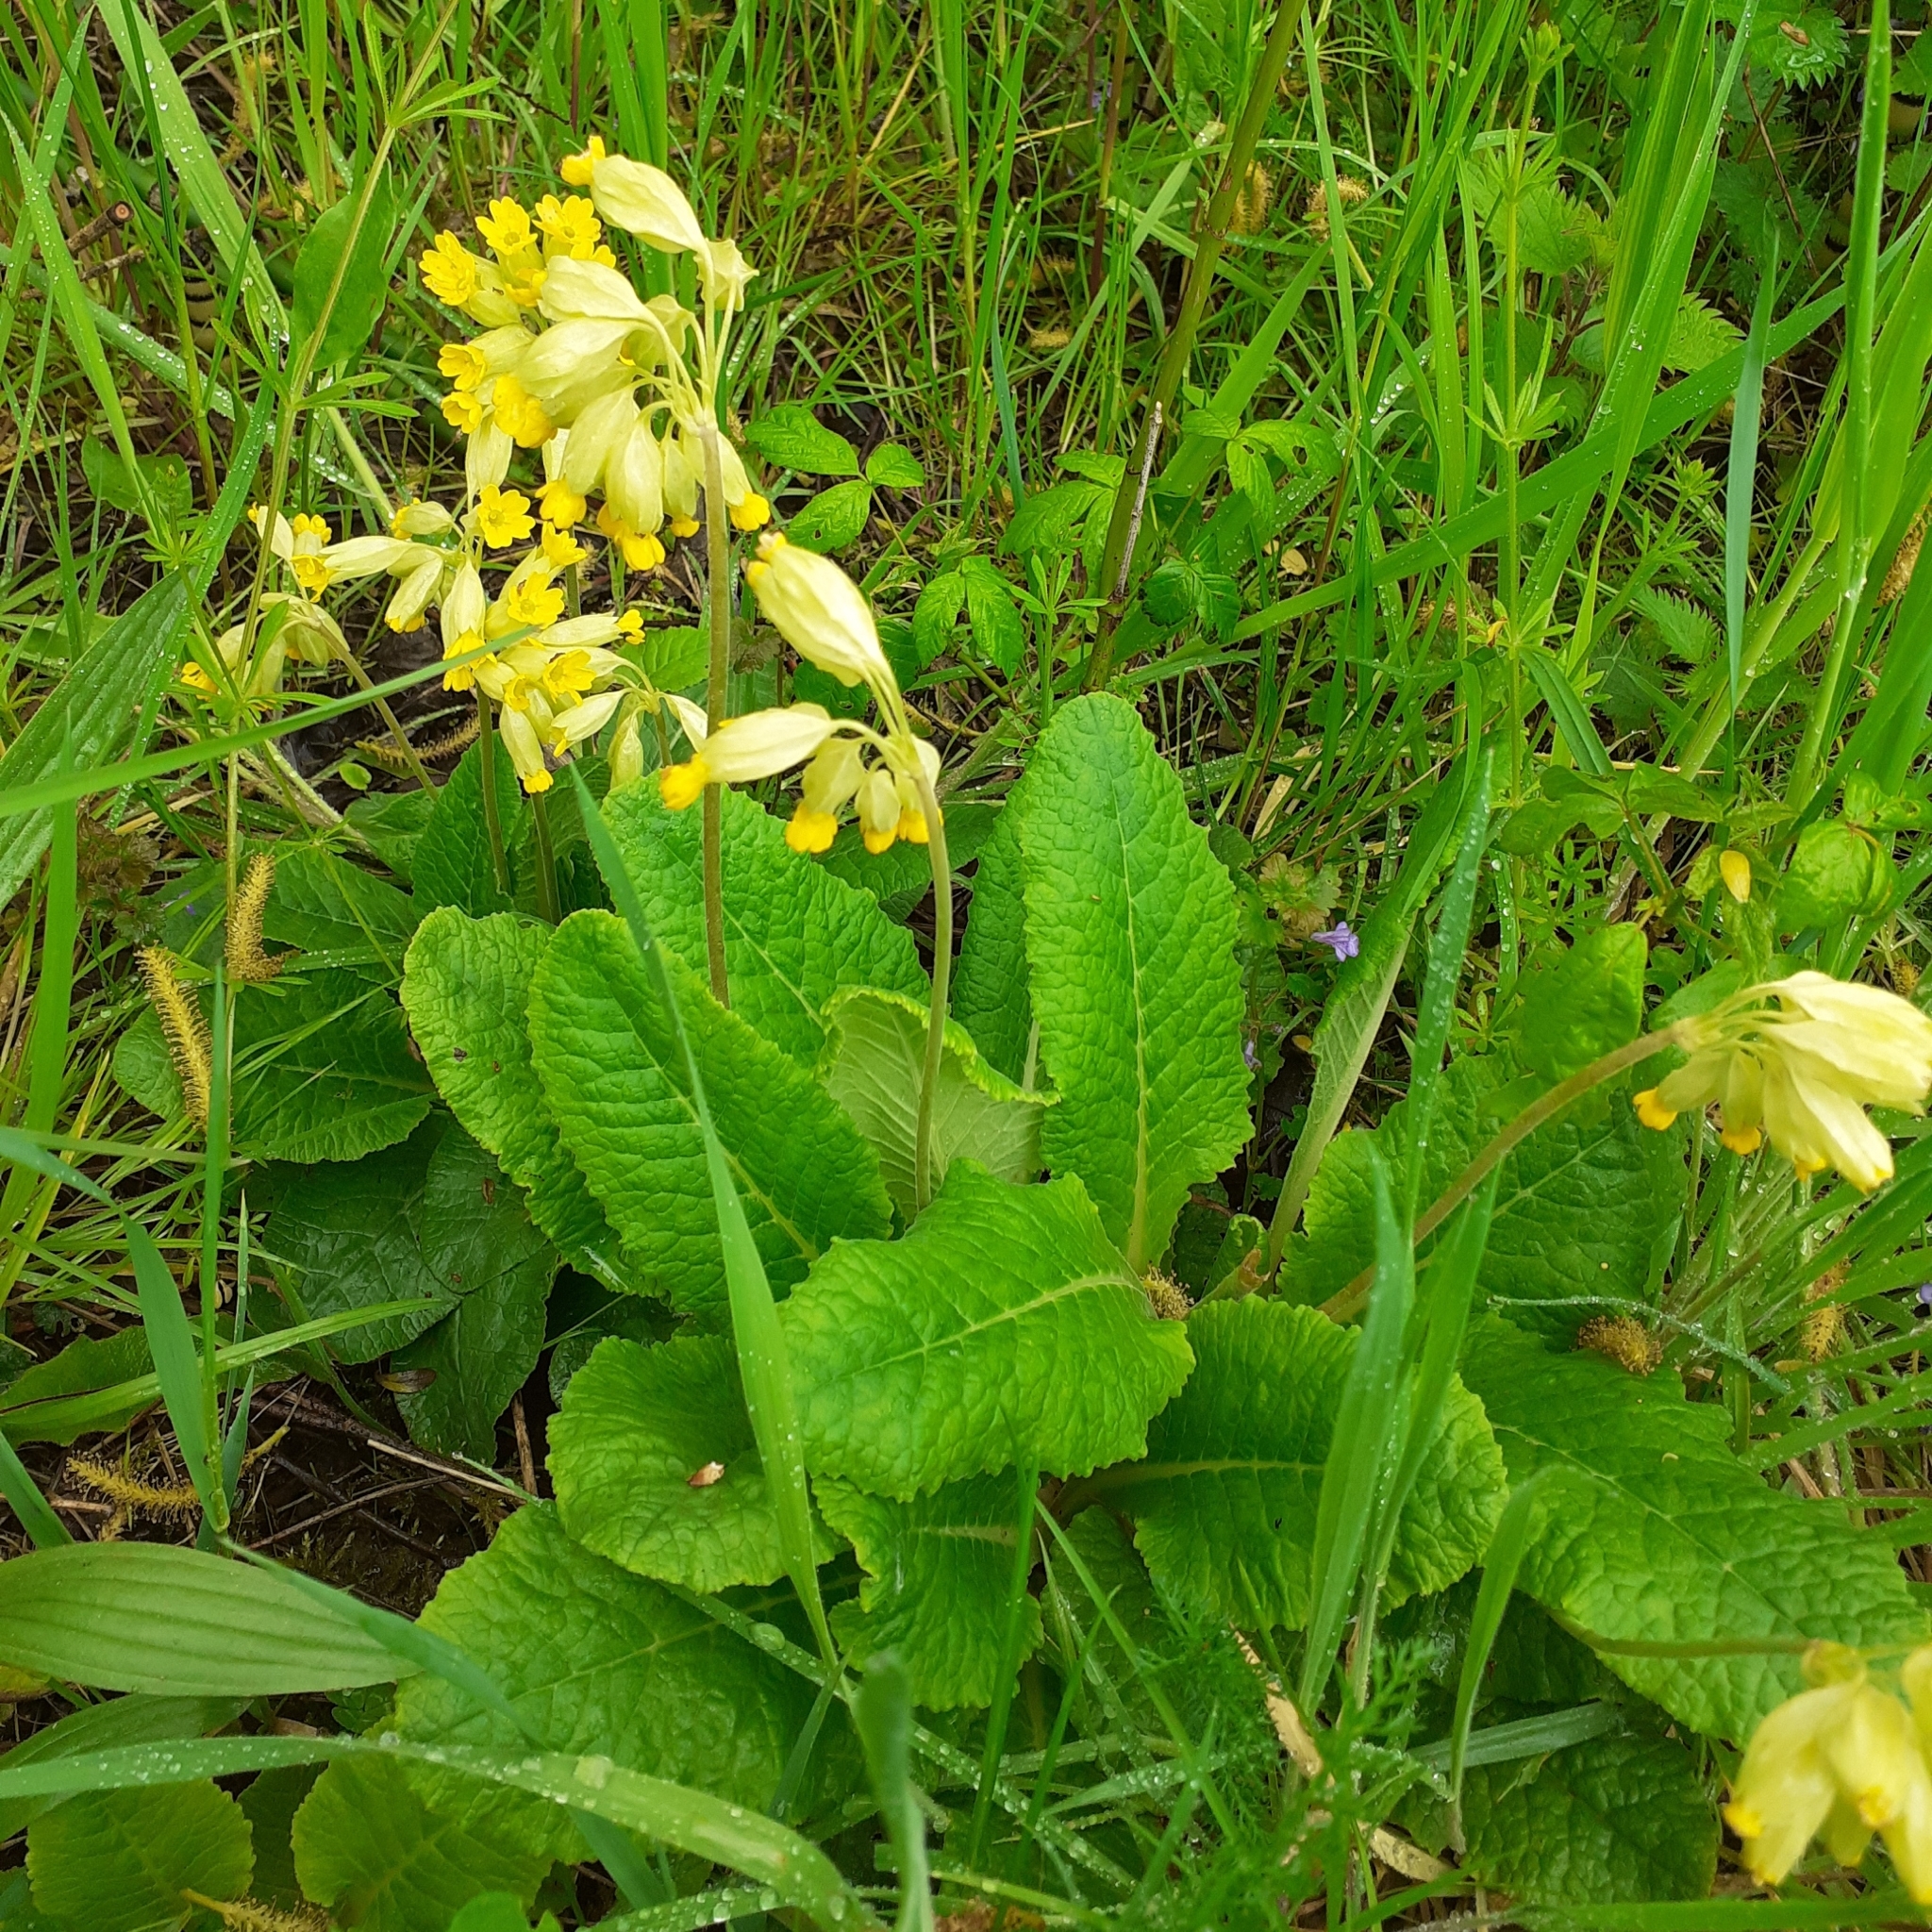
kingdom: Plantae
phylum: Tracheophyta
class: Magnoliopsida
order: Ericales
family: Primulaceae
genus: Primula
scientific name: Primula veris
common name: Cowslip
